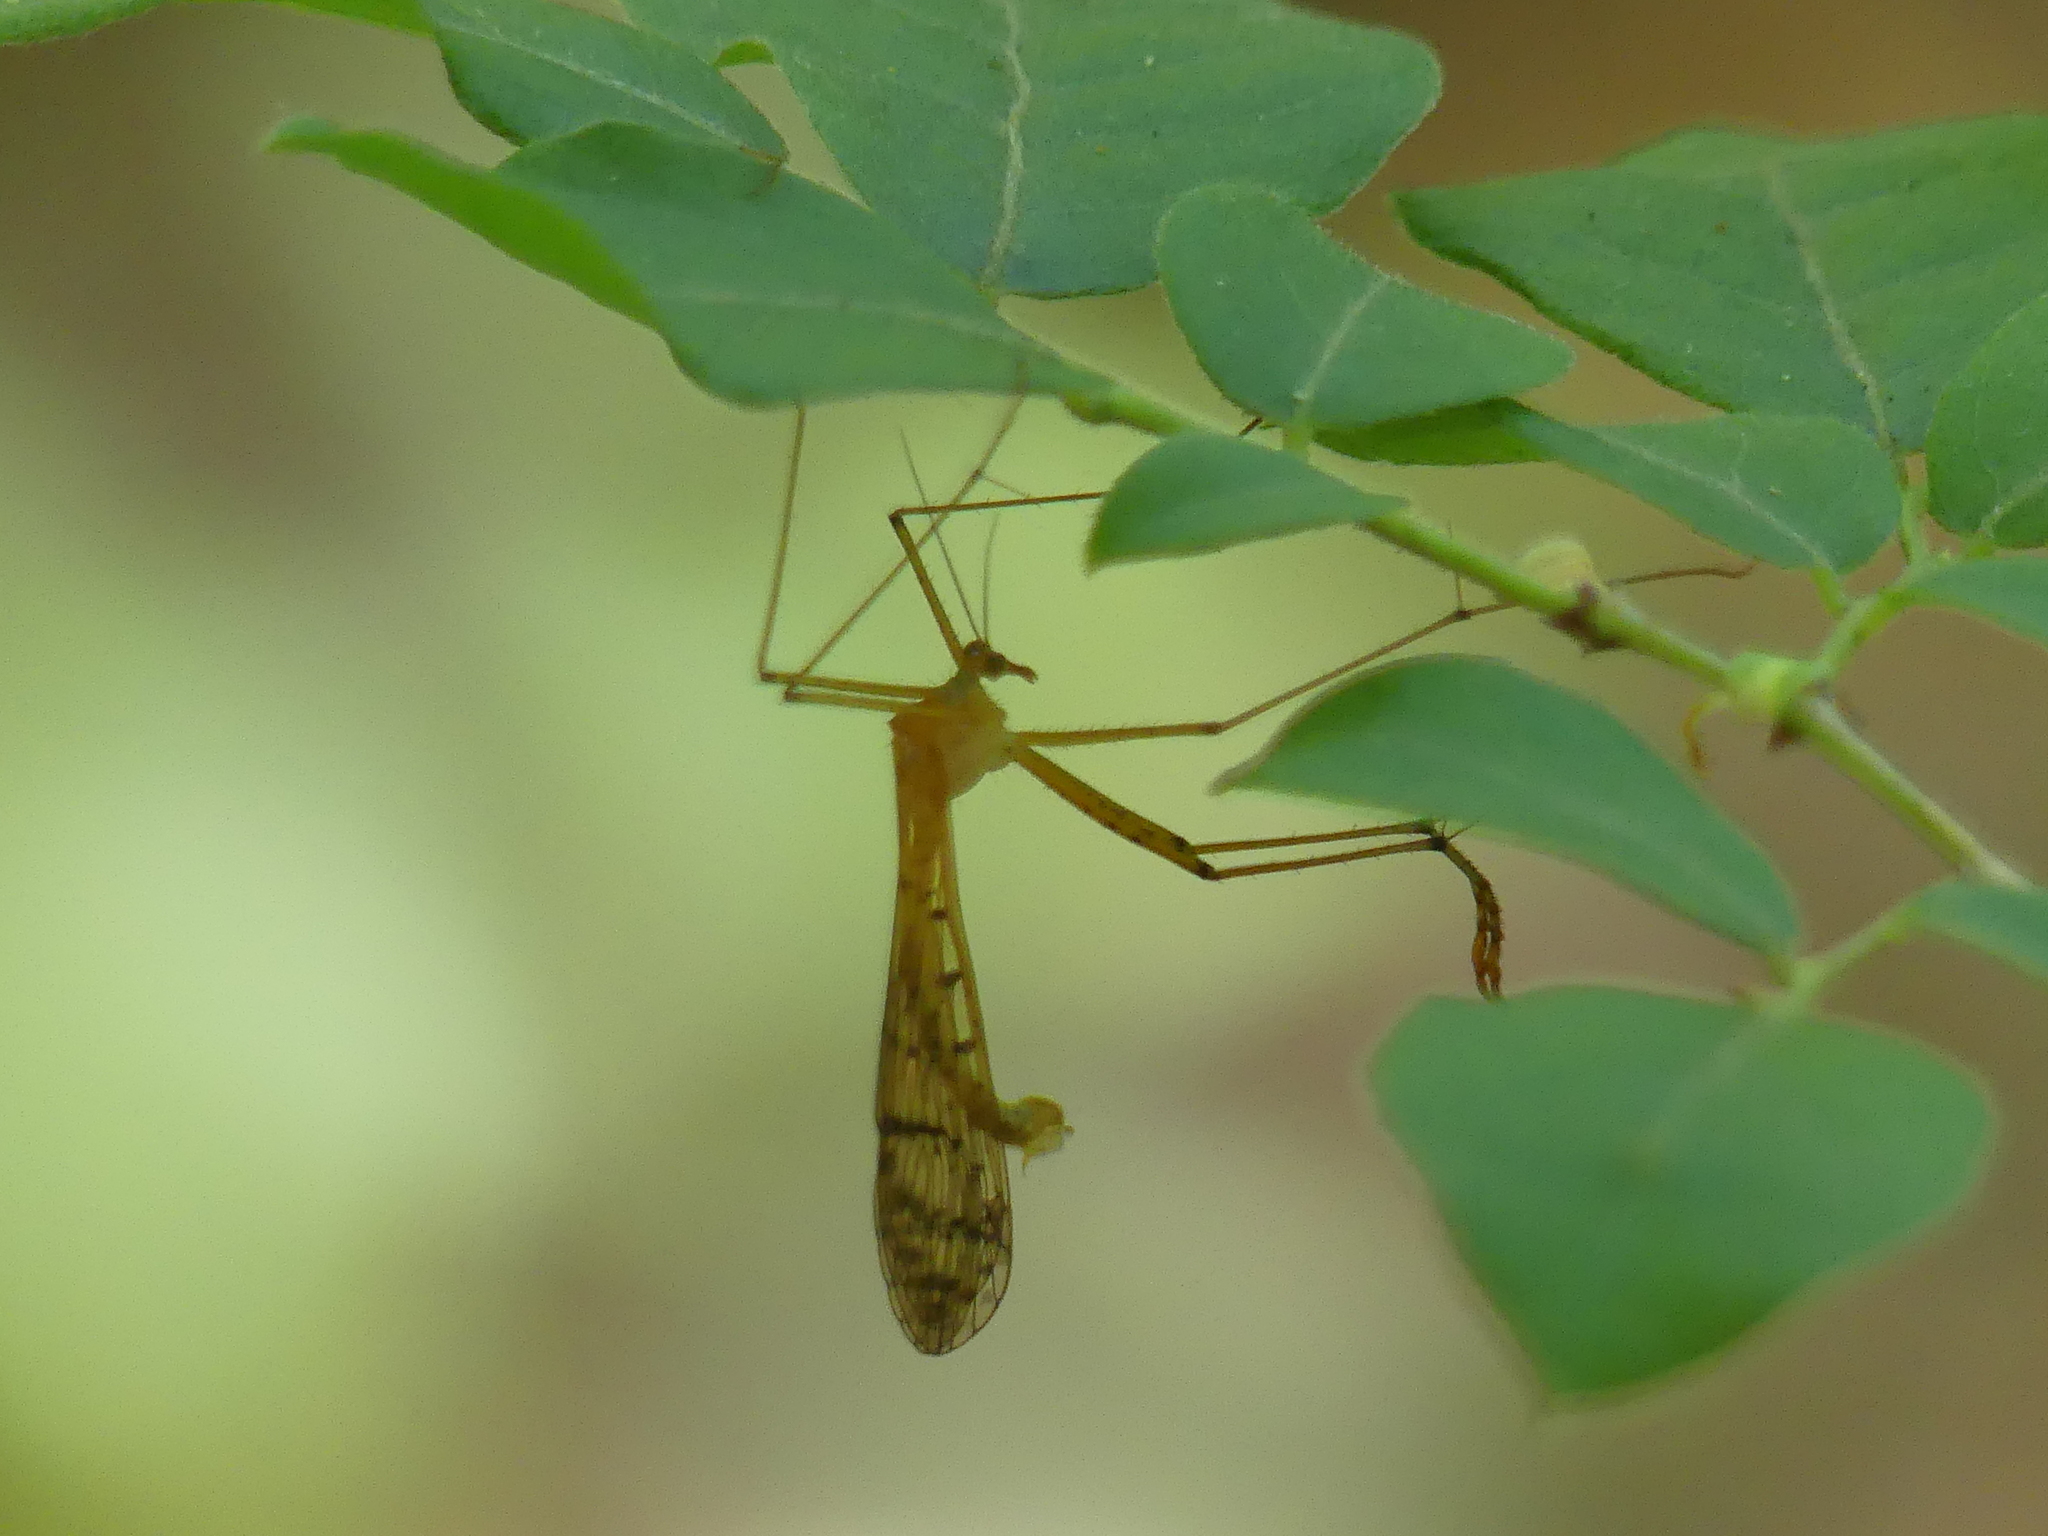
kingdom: Animalia
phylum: Arthropoda
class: Insecta
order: Mecoptera
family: Bittacidae
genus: Bittacus
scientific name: Bittacus punctiger
